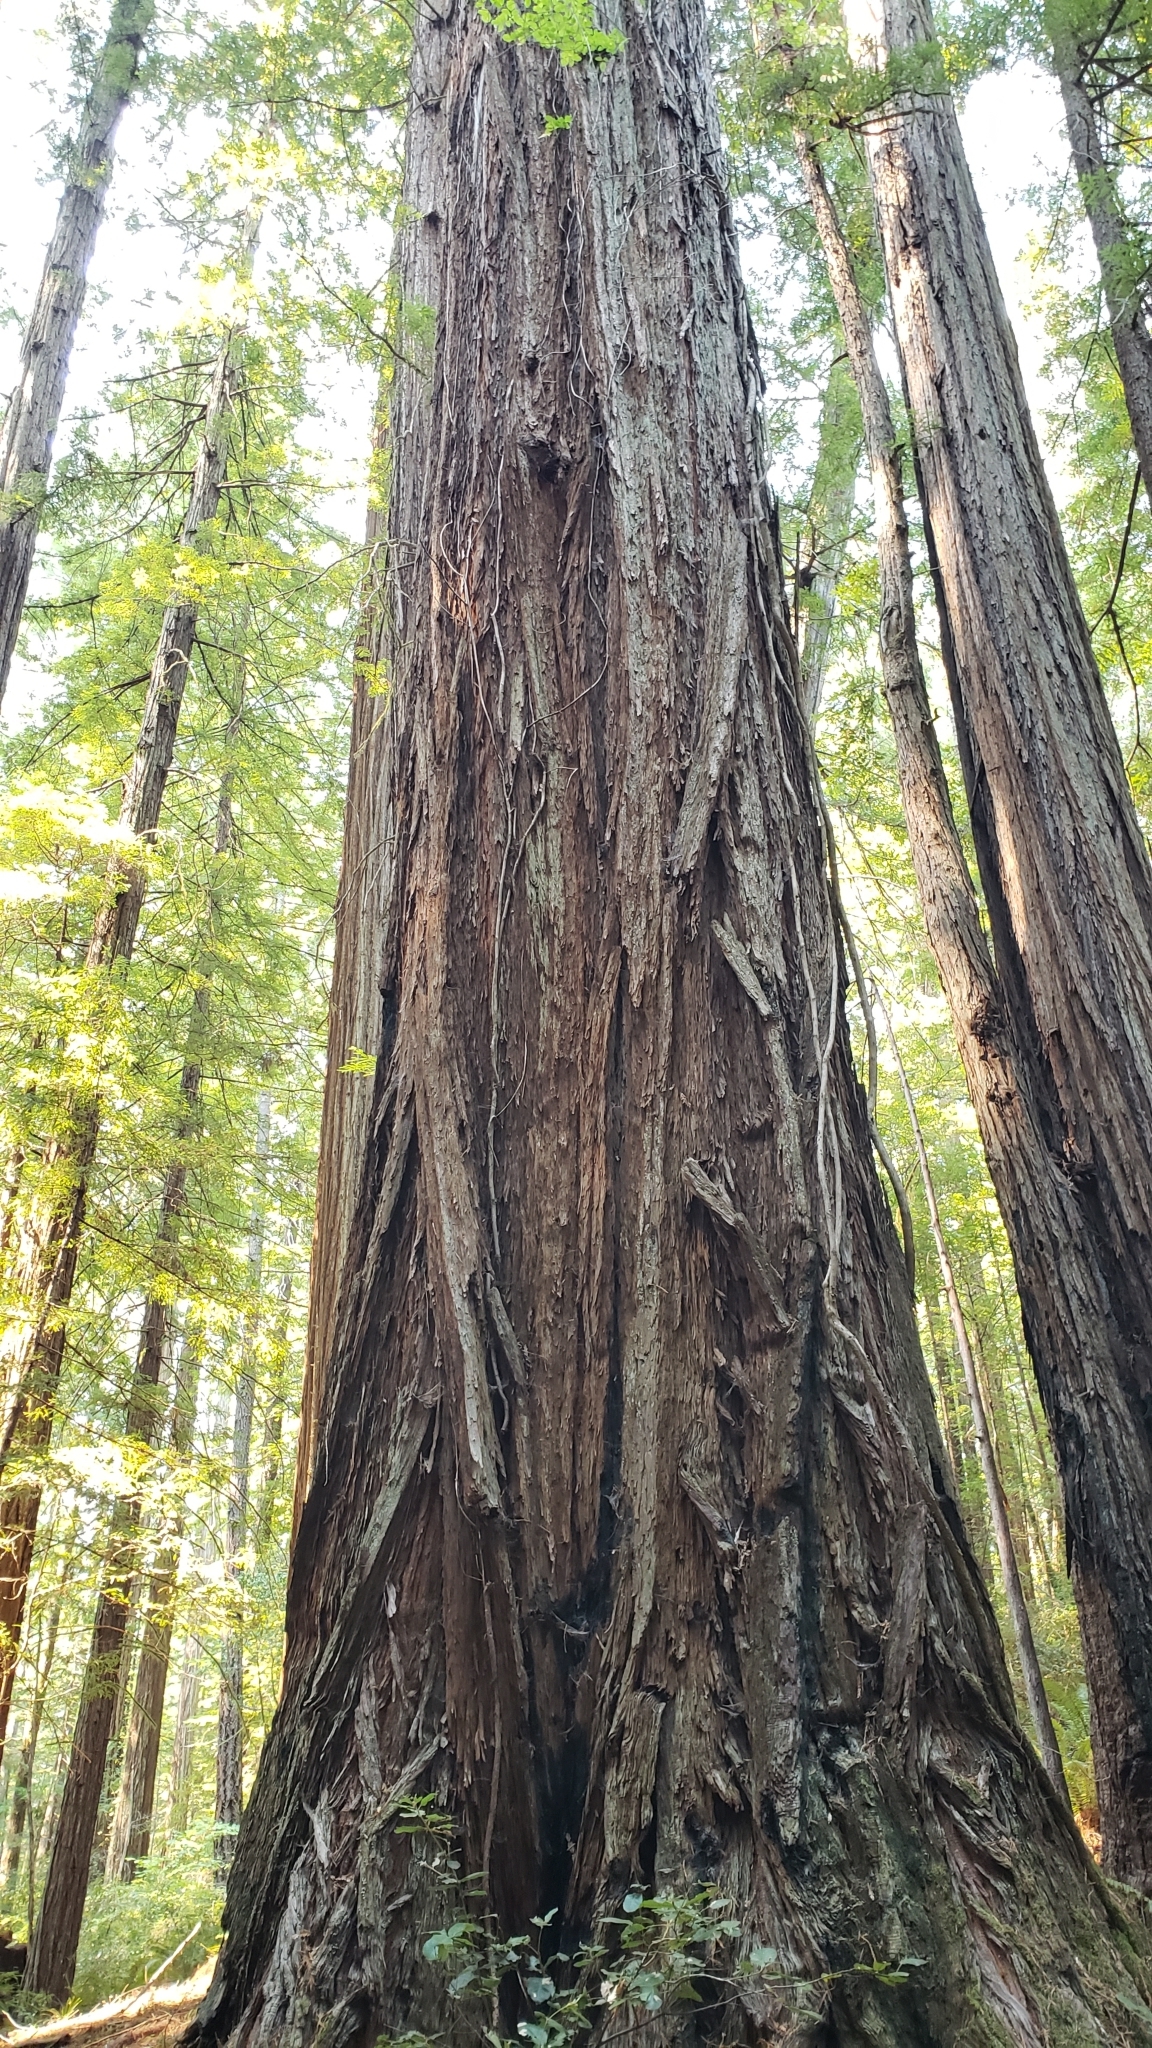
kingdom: Plantae
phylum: Tracheophyta
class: Pinopsida
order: Pinales
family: Cupressaceae
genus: Sequoia
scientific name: Sequoia sempervirens
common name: Coast redwood
